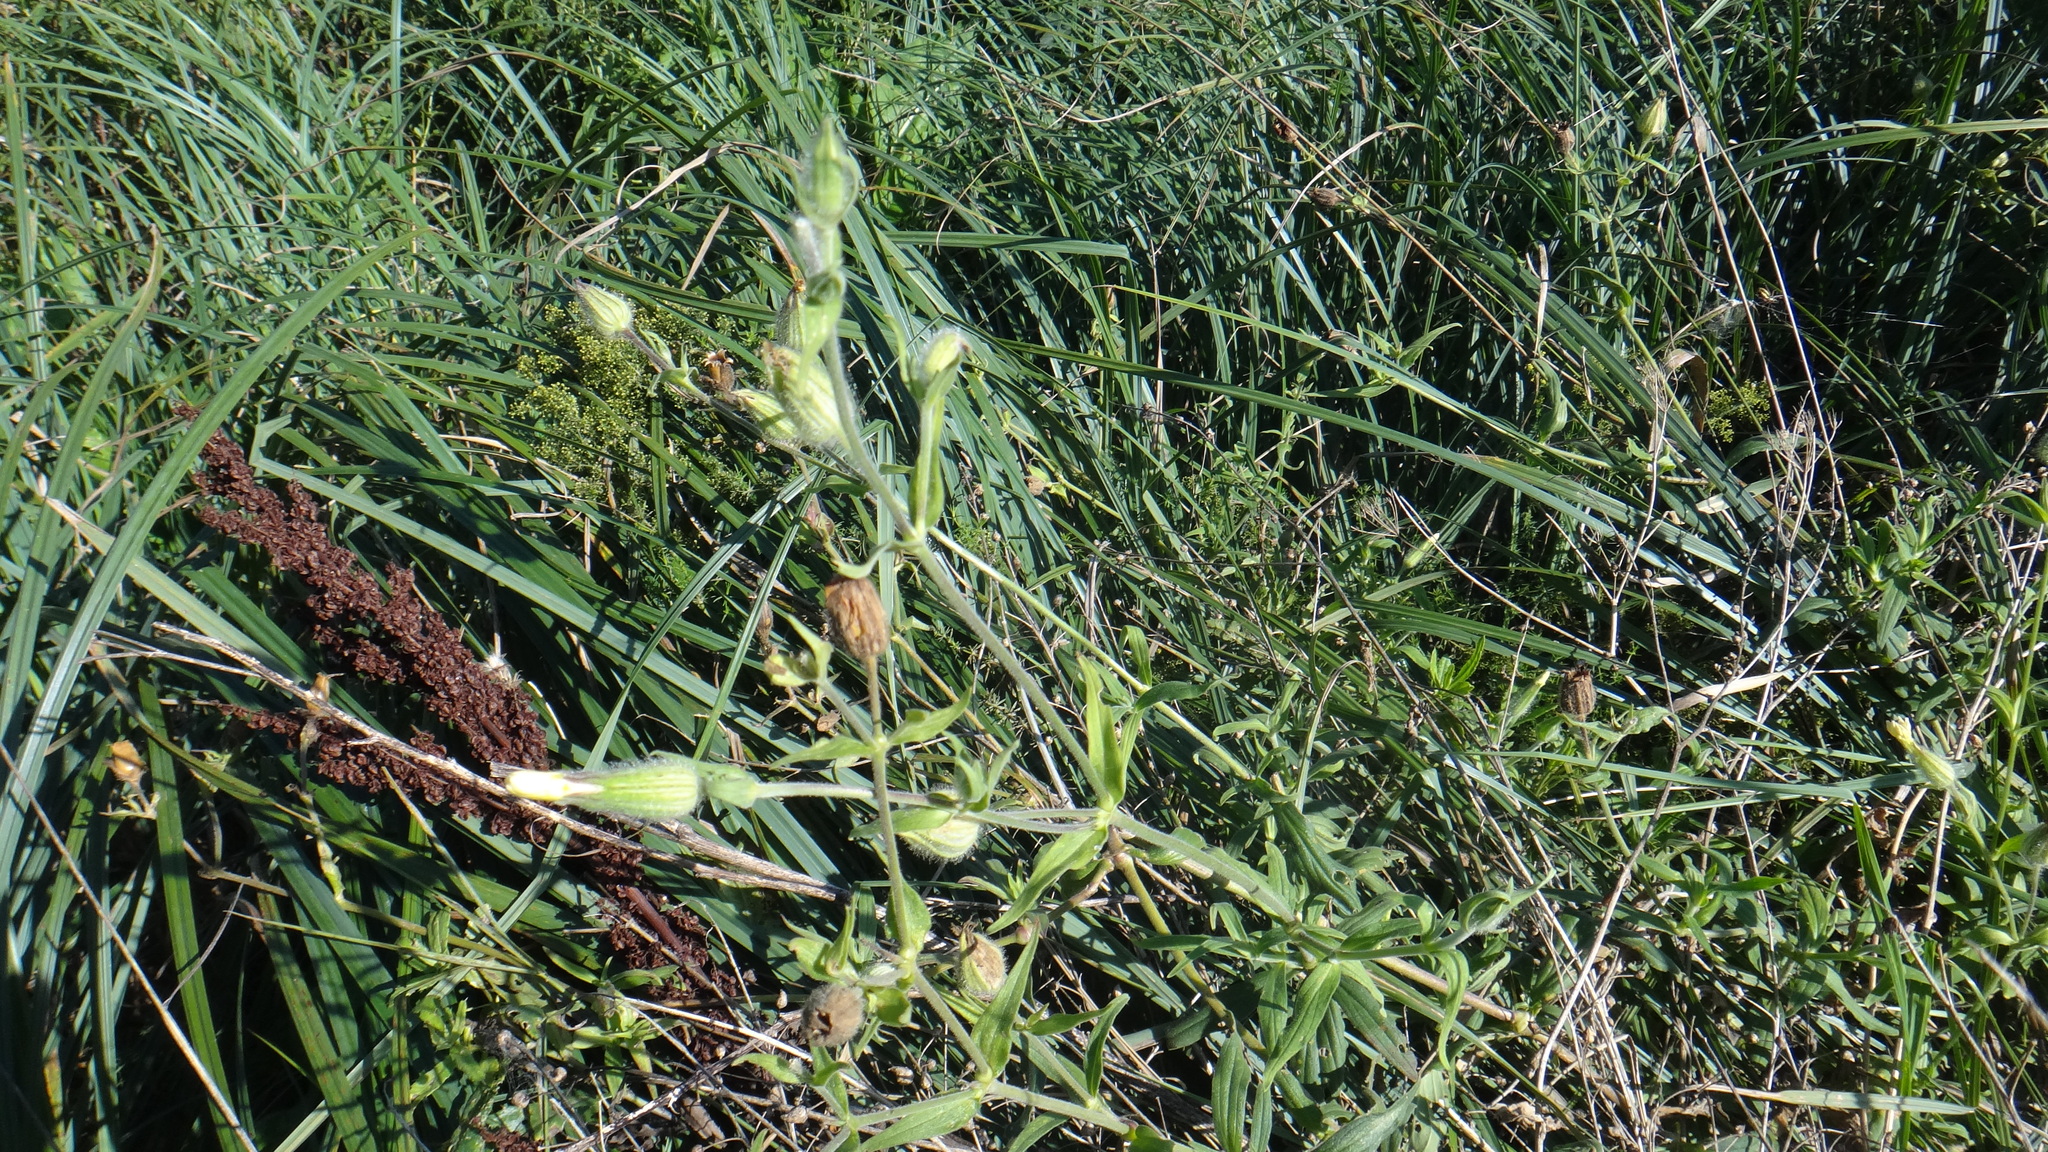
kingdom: Plantae
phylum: Tracheophyta
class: Magnoliopsida
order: Caryophyllales
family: Caryophyllaceae
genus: Silene
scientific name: Silene latifolia
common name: White campion
